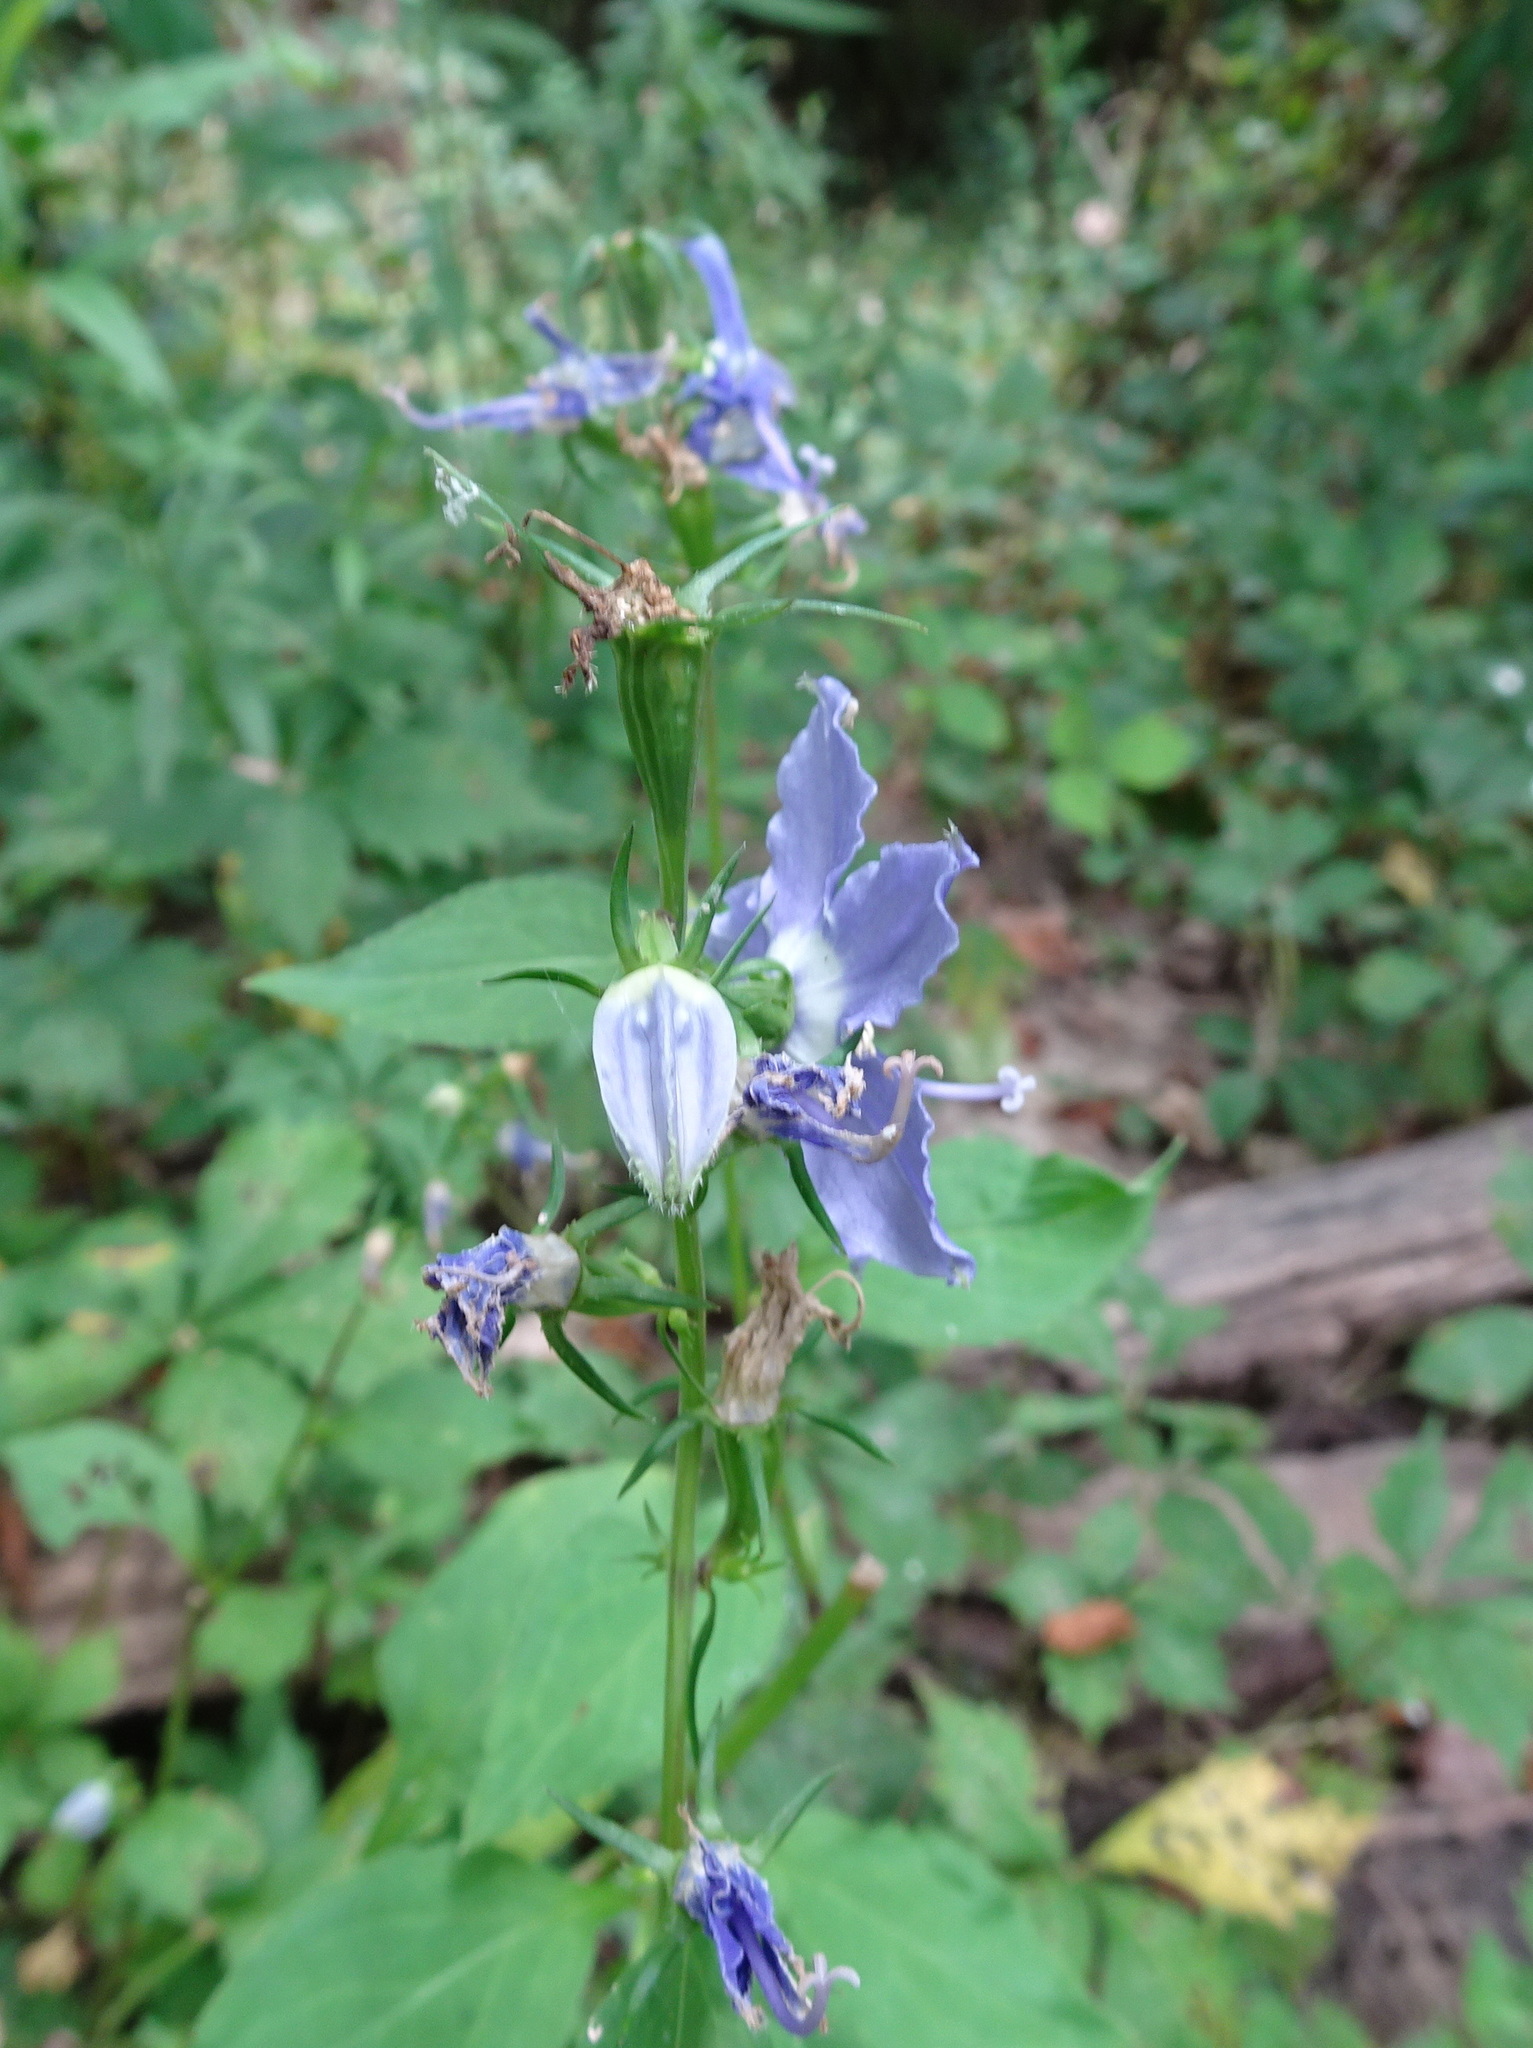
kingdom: Plantae
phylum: Tracheophyta
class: Magnoliopsida
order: Asterales
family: Campanulaceae
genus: Campanulastrum
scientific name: Campanulastrum americanum
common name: American bellflower
